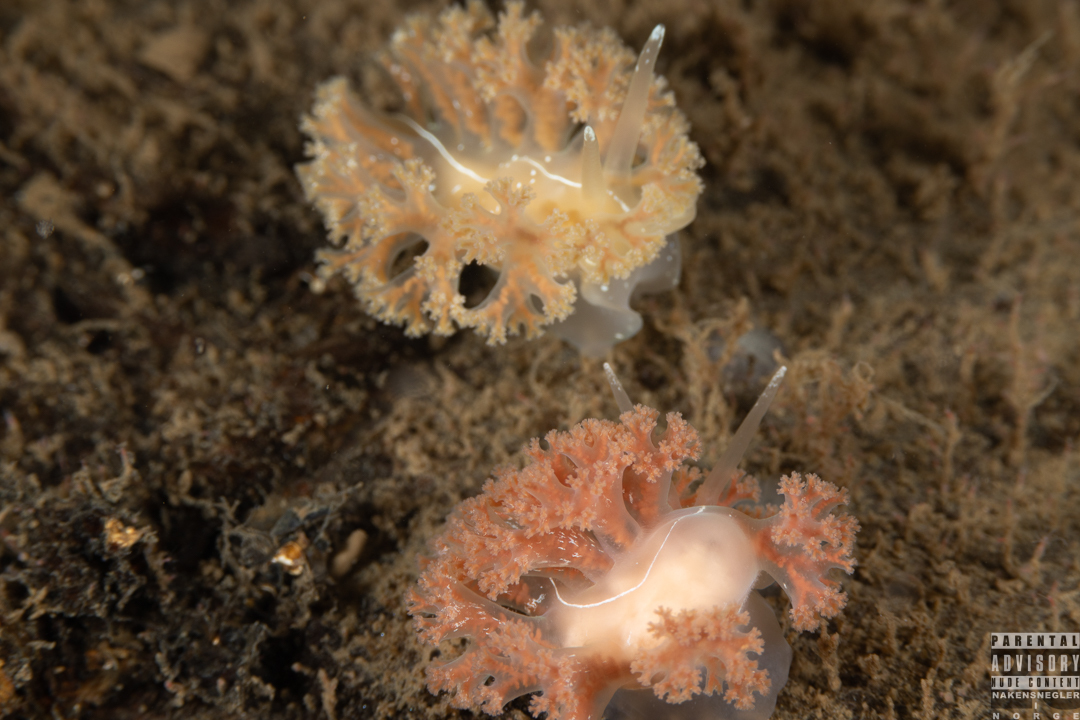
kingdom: Animalia
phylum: Mollusca
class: Gastropoda
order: Nudibranchia
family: Heroidae
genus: Hero
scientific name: Hero formosa
